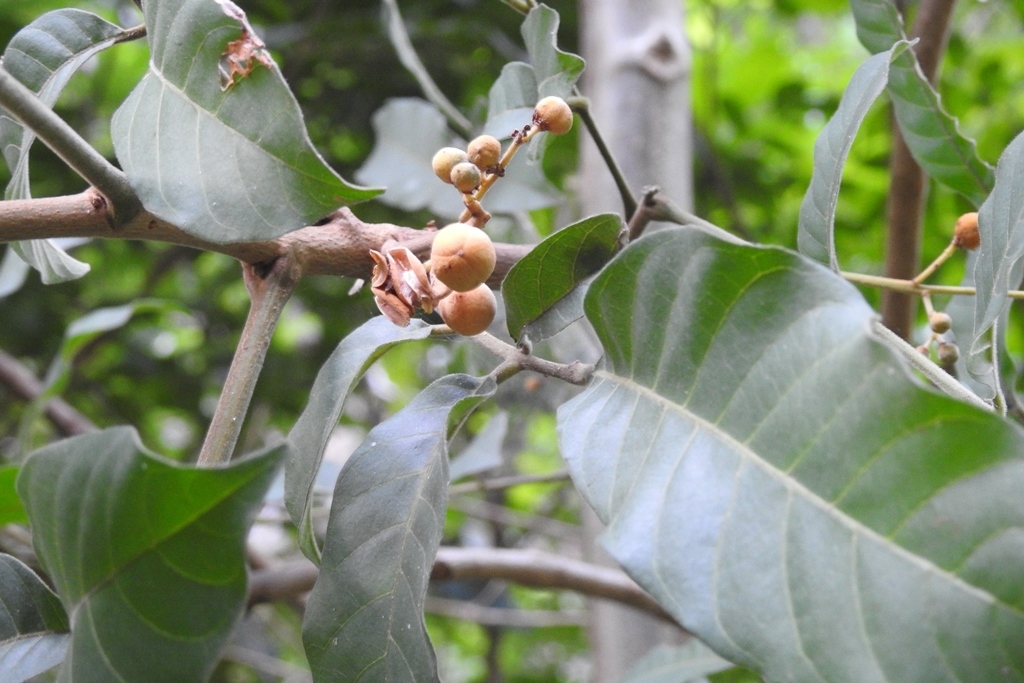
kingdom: Plantae
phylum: Tracheophyta
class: Magnoliopsida
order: Sapindales
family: Meliaceae
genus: Trichilia
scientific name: Trichilia martiana
